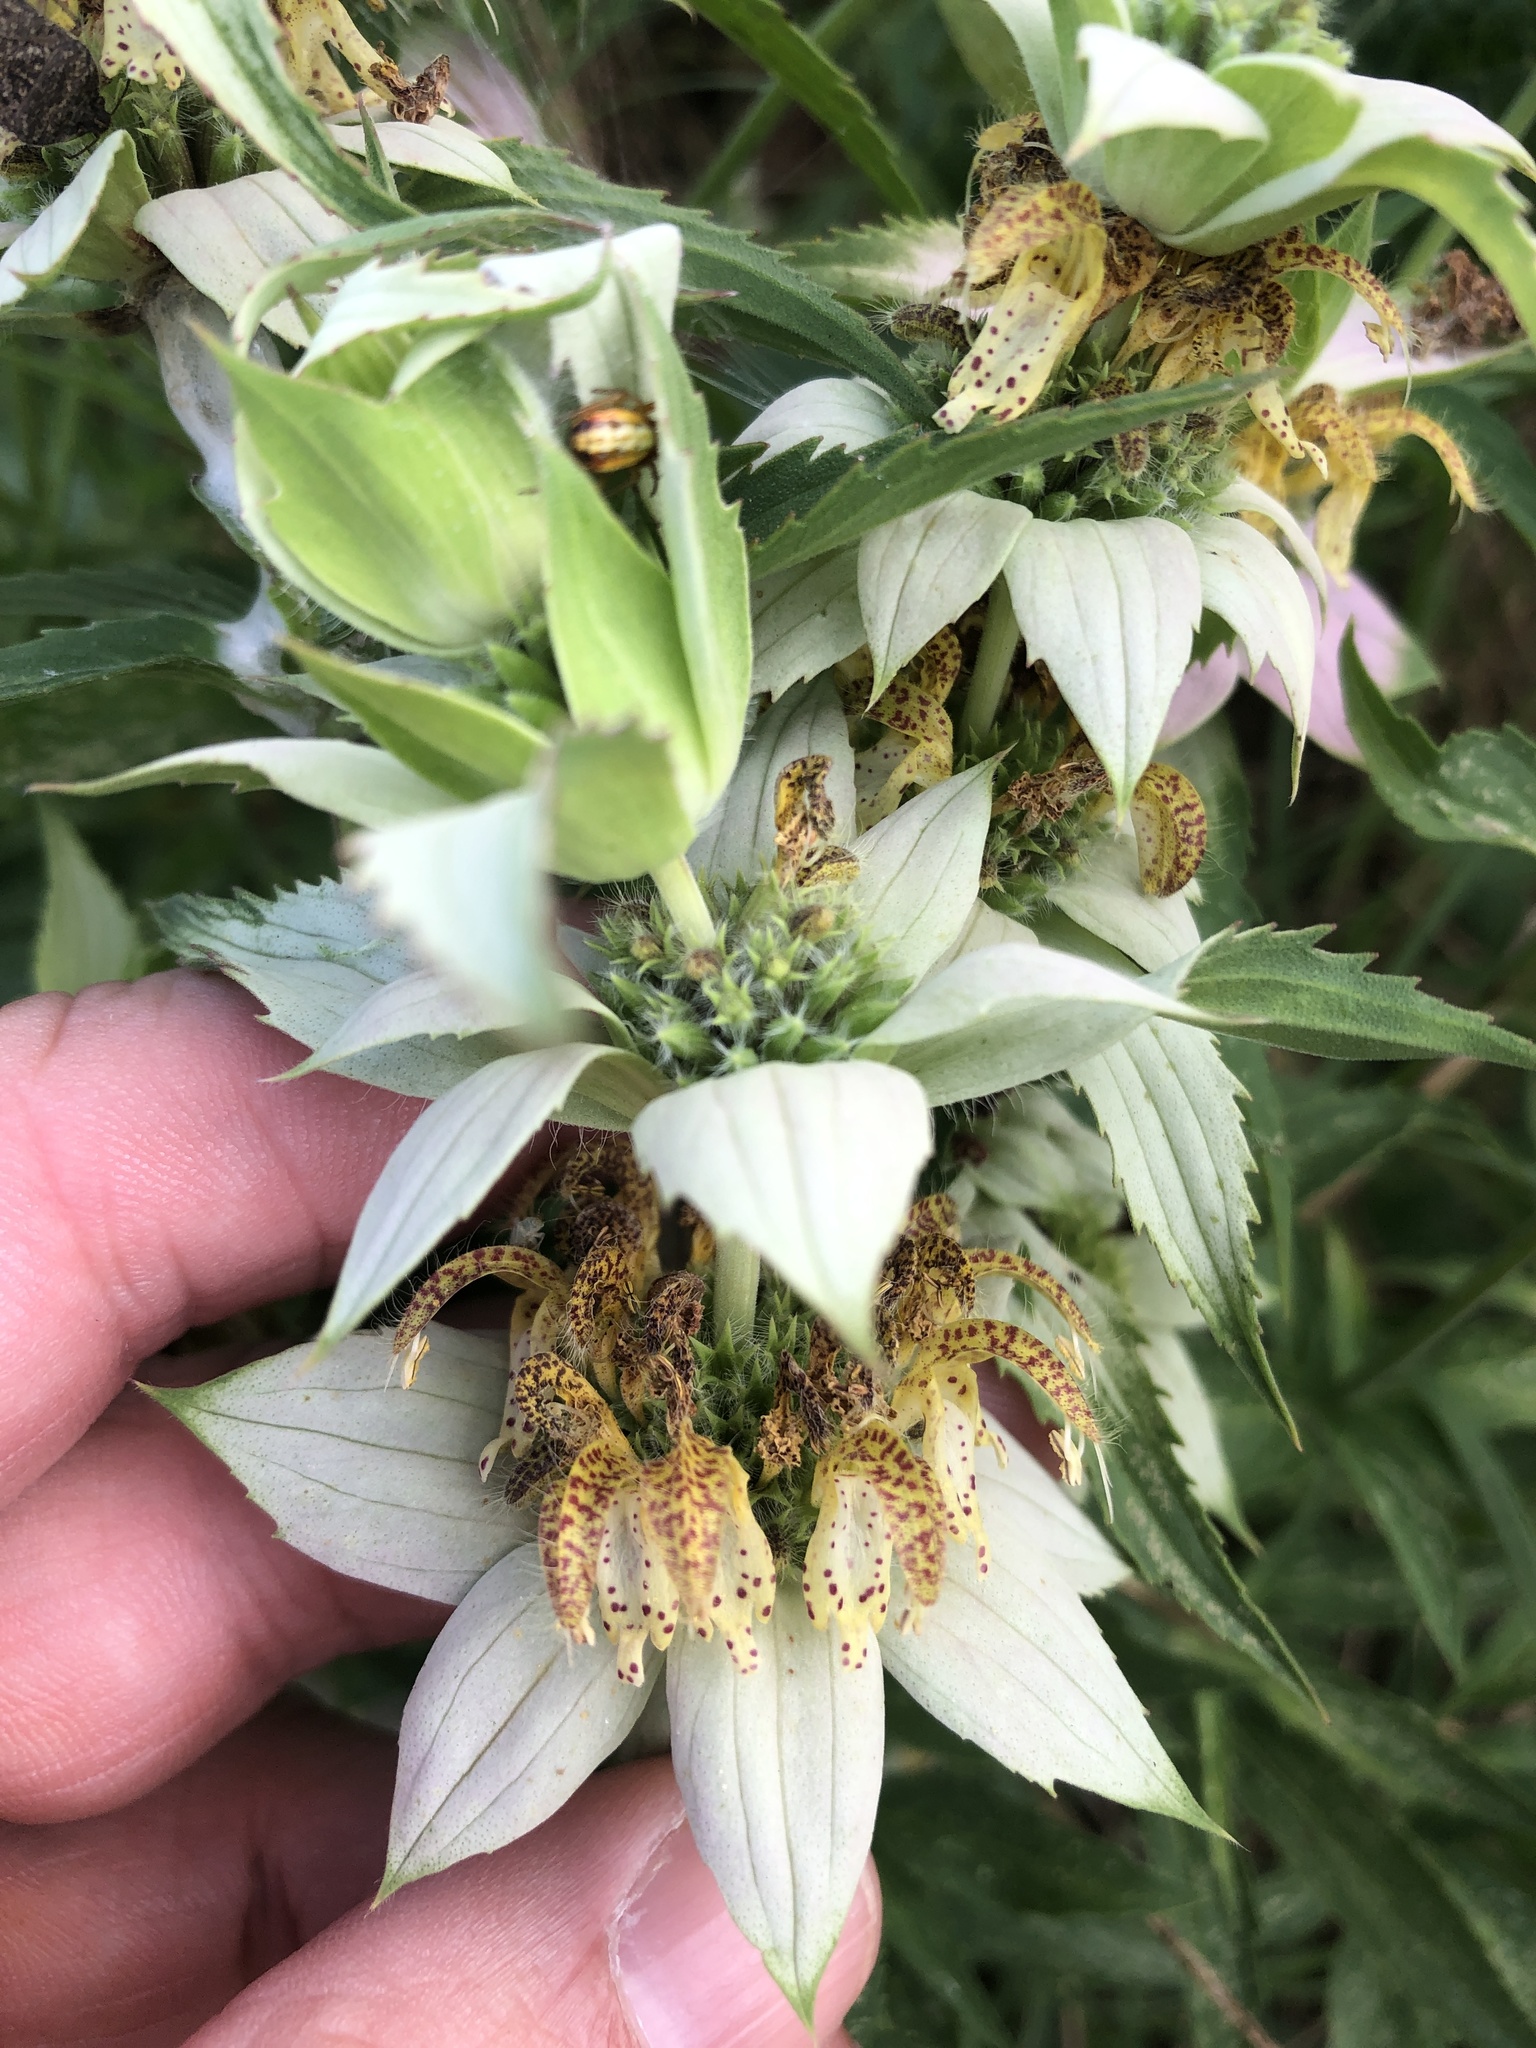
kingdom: Plantae
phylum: Tracheophyta
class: Magnoliopsida
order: Lamiales
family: Lamiaceae
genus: Monarda
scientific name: Monarda punctata
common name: Dotted monarda
